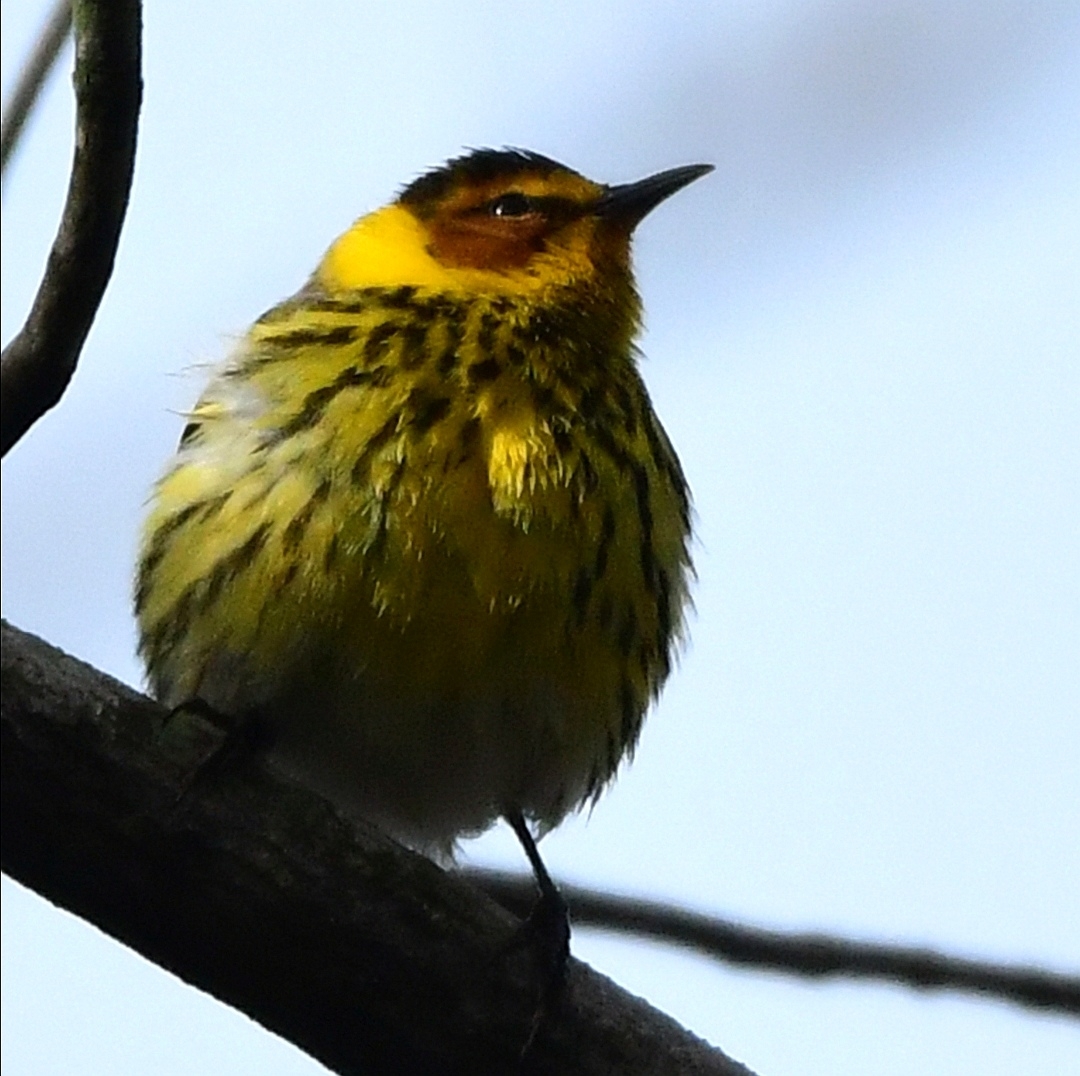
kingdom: Animalia
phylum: Chordata
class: Aves
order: Passeriformes
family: Parulidae
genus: Setophaga
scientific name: Setophaga tigrina
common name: Cape may warbler
